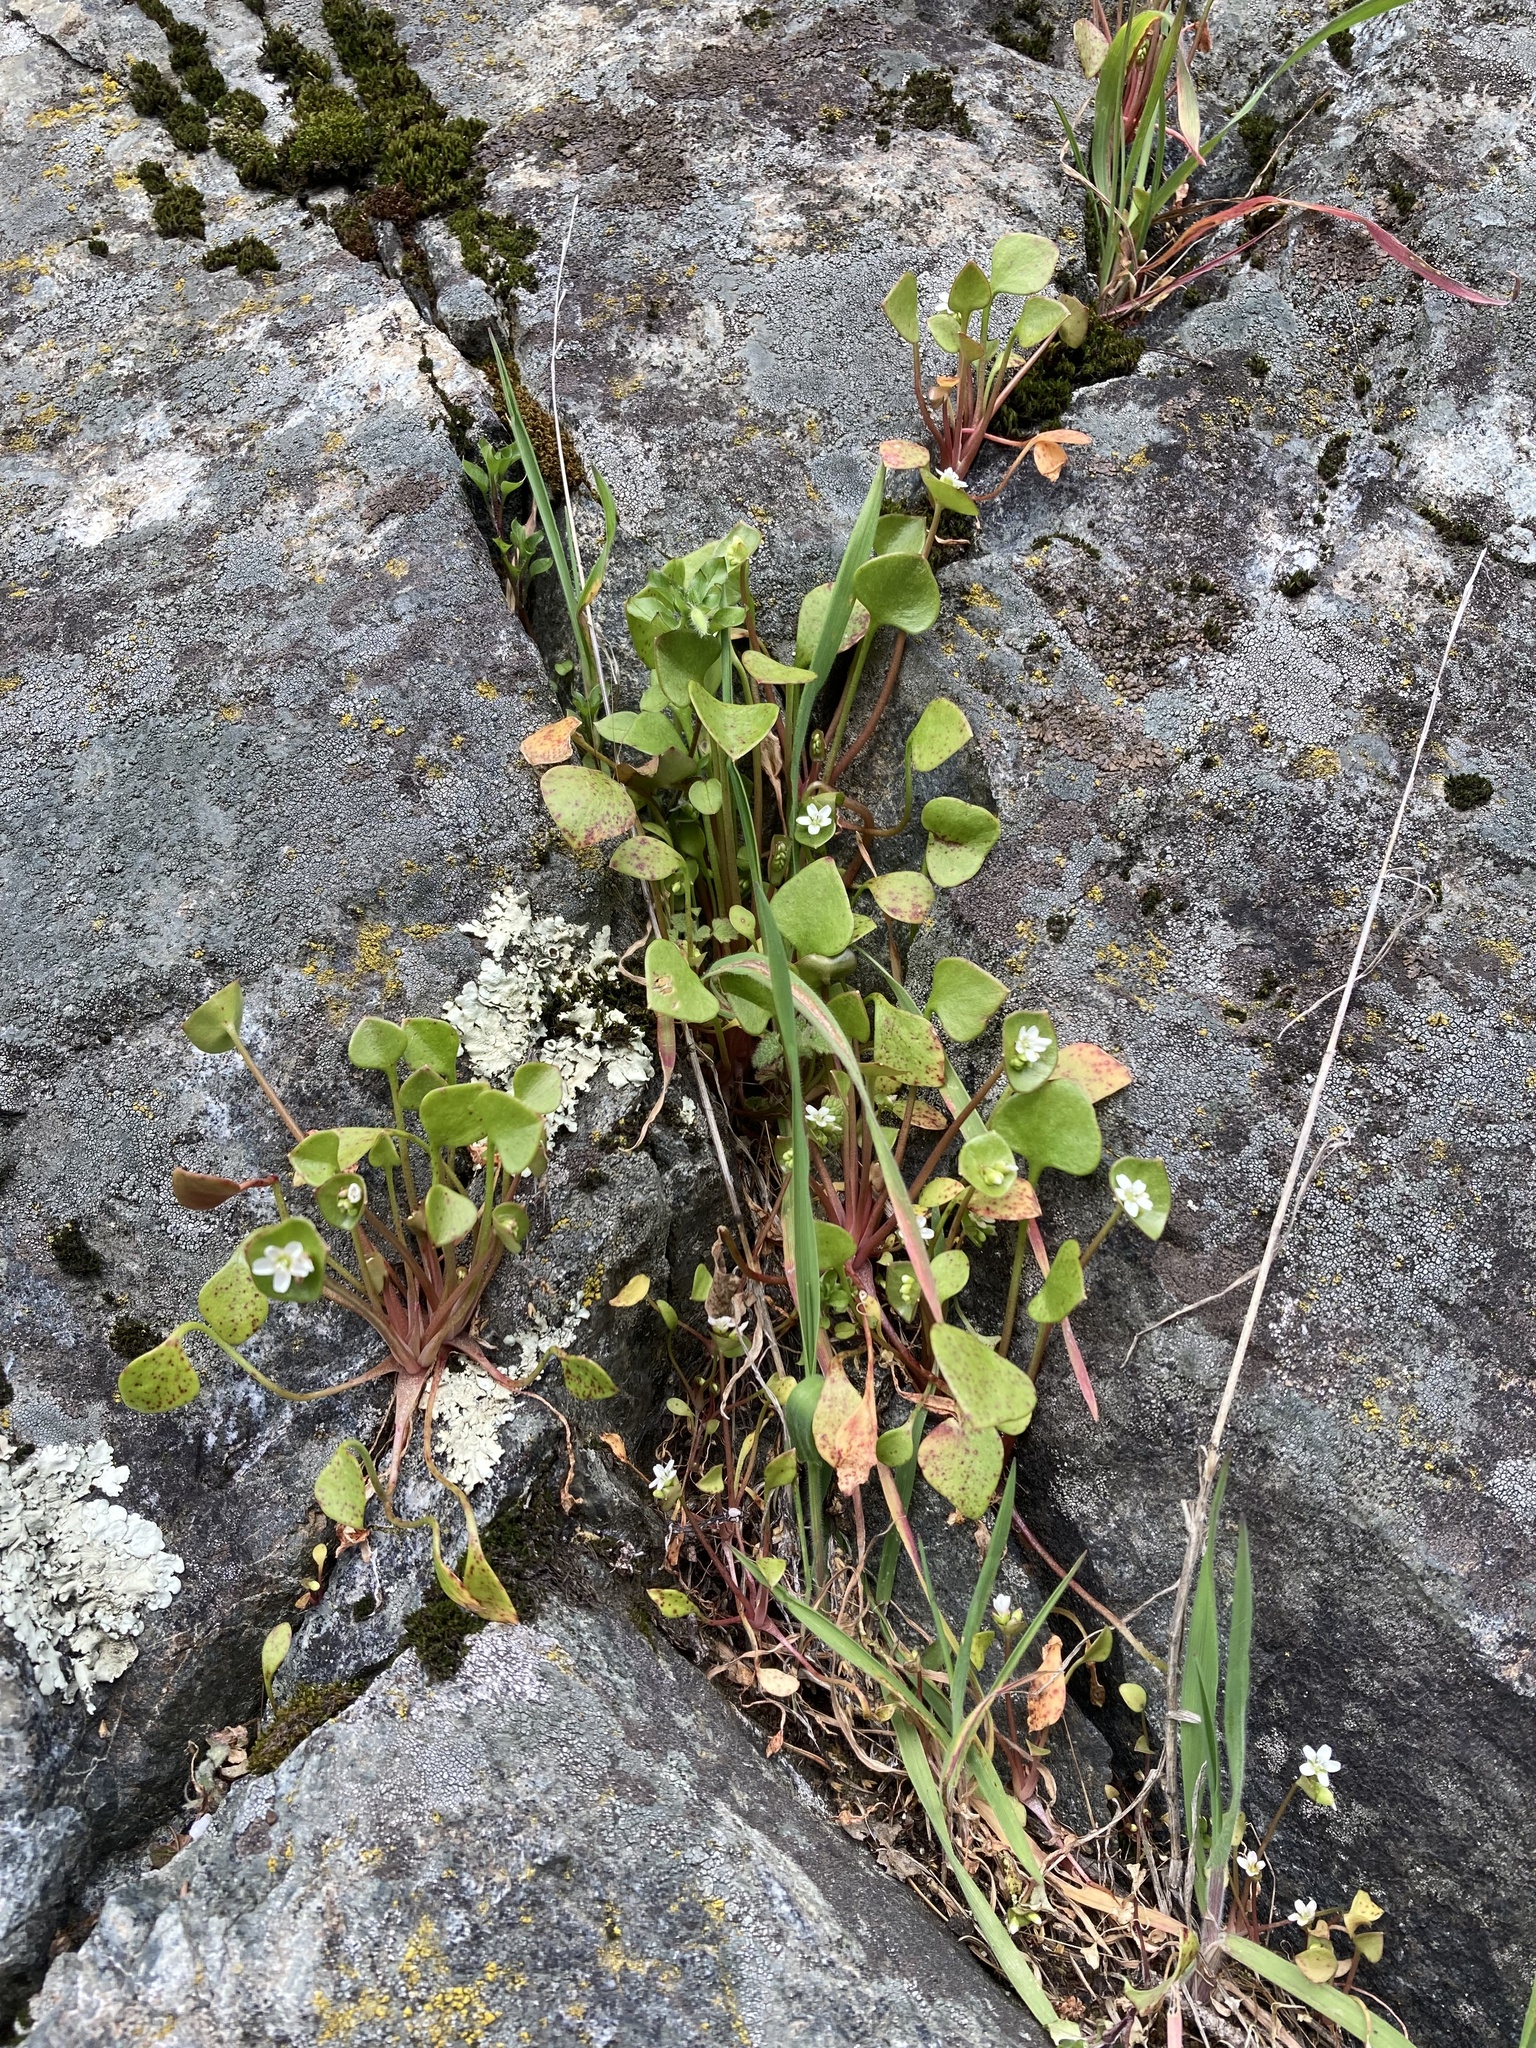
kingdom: Plantae
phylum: Tracheophyta
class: Magnoliopsida
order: Caryophyllales
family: Montiaceae
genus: Claytonia
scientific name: Claytonia perfoliata
